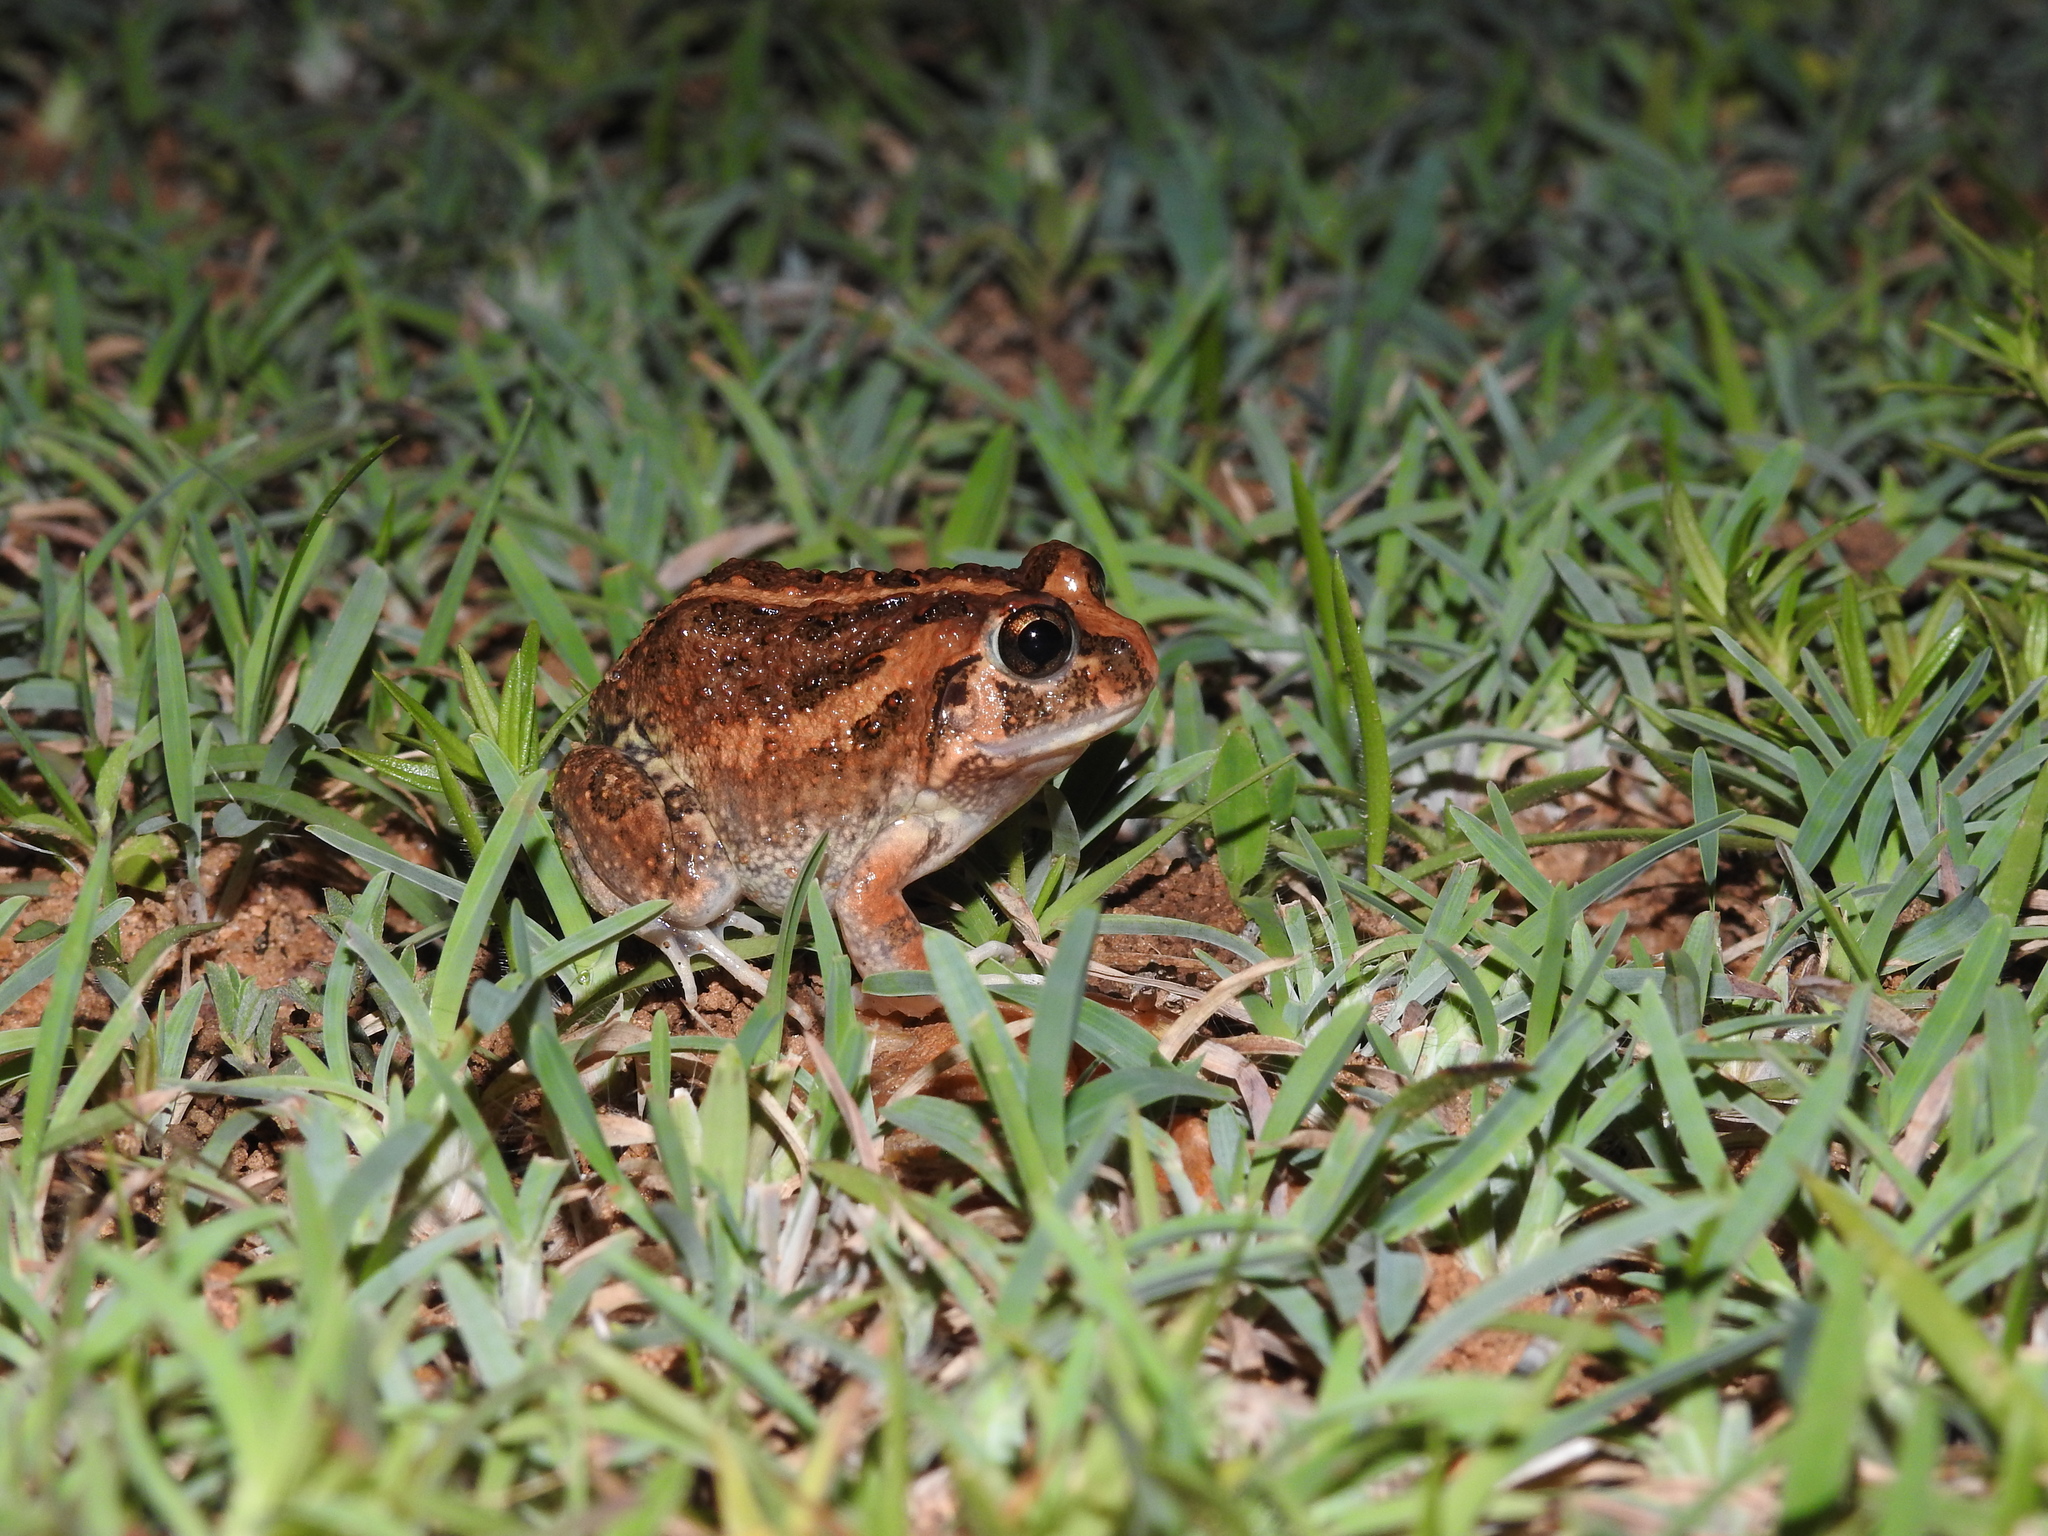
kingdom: Animalia
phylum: Chordata
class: Amphibia
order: Anura
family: Dicroglossidae
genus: Sphaerotheca
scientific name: Sphaerotheca bengaluru
